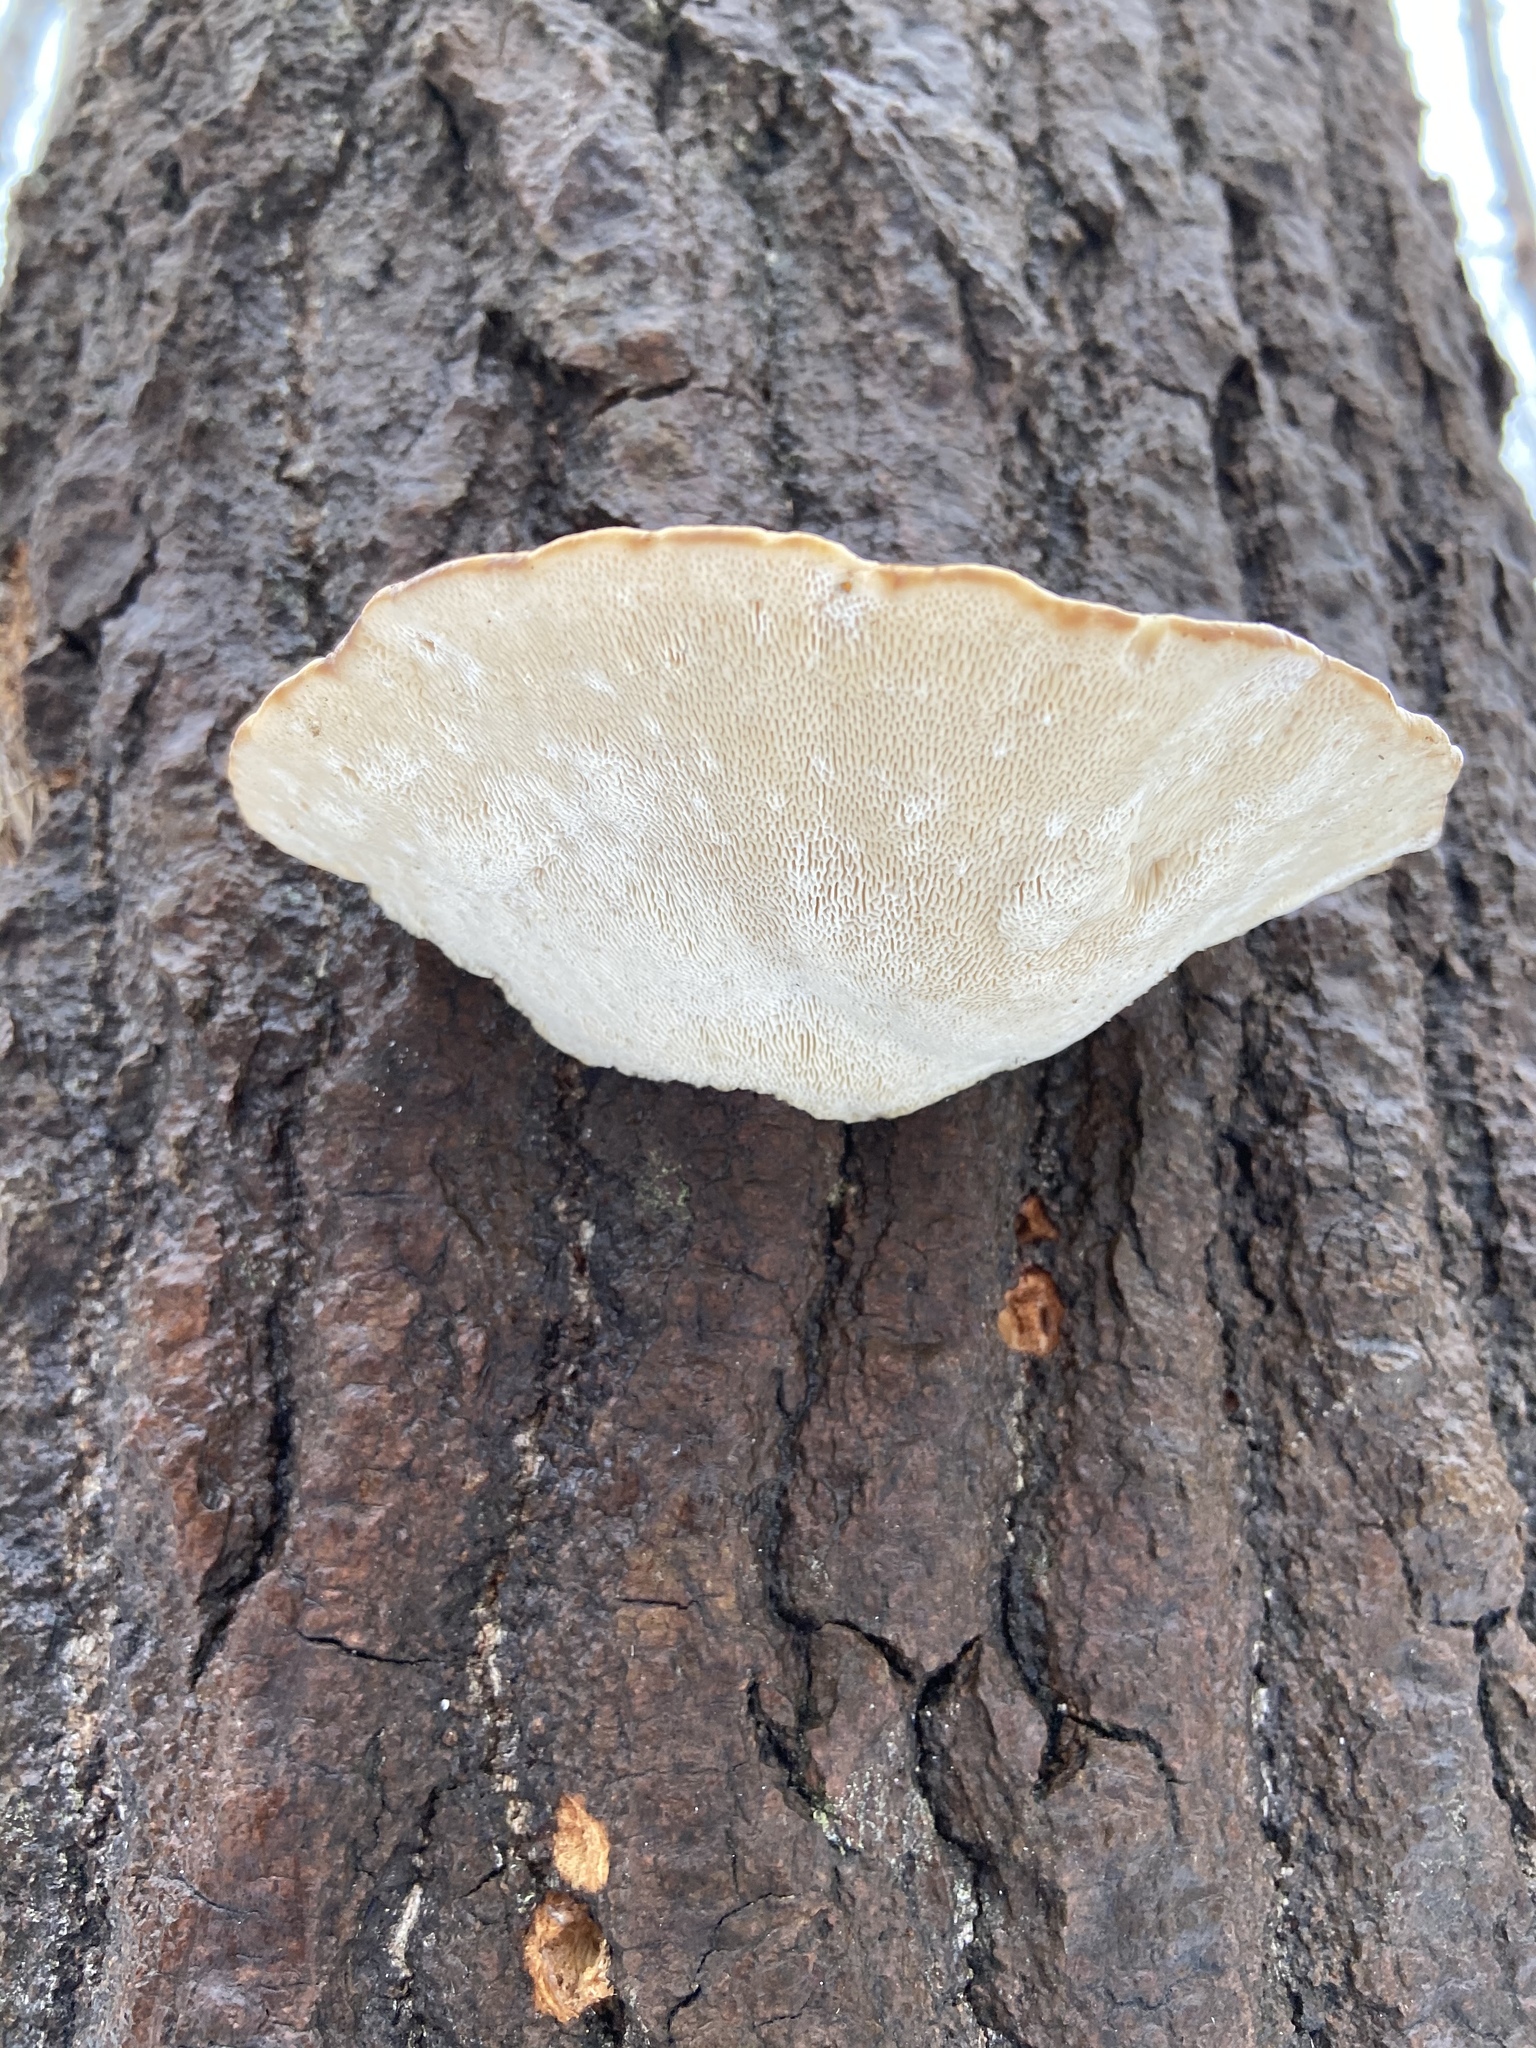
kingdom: Fungi
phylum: Basidiomycota
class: Agaricomycetes
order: Polyporales
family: Polyporaceae
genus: Trametes
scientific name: Trametes gibbosa
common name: Lumpy bracket
